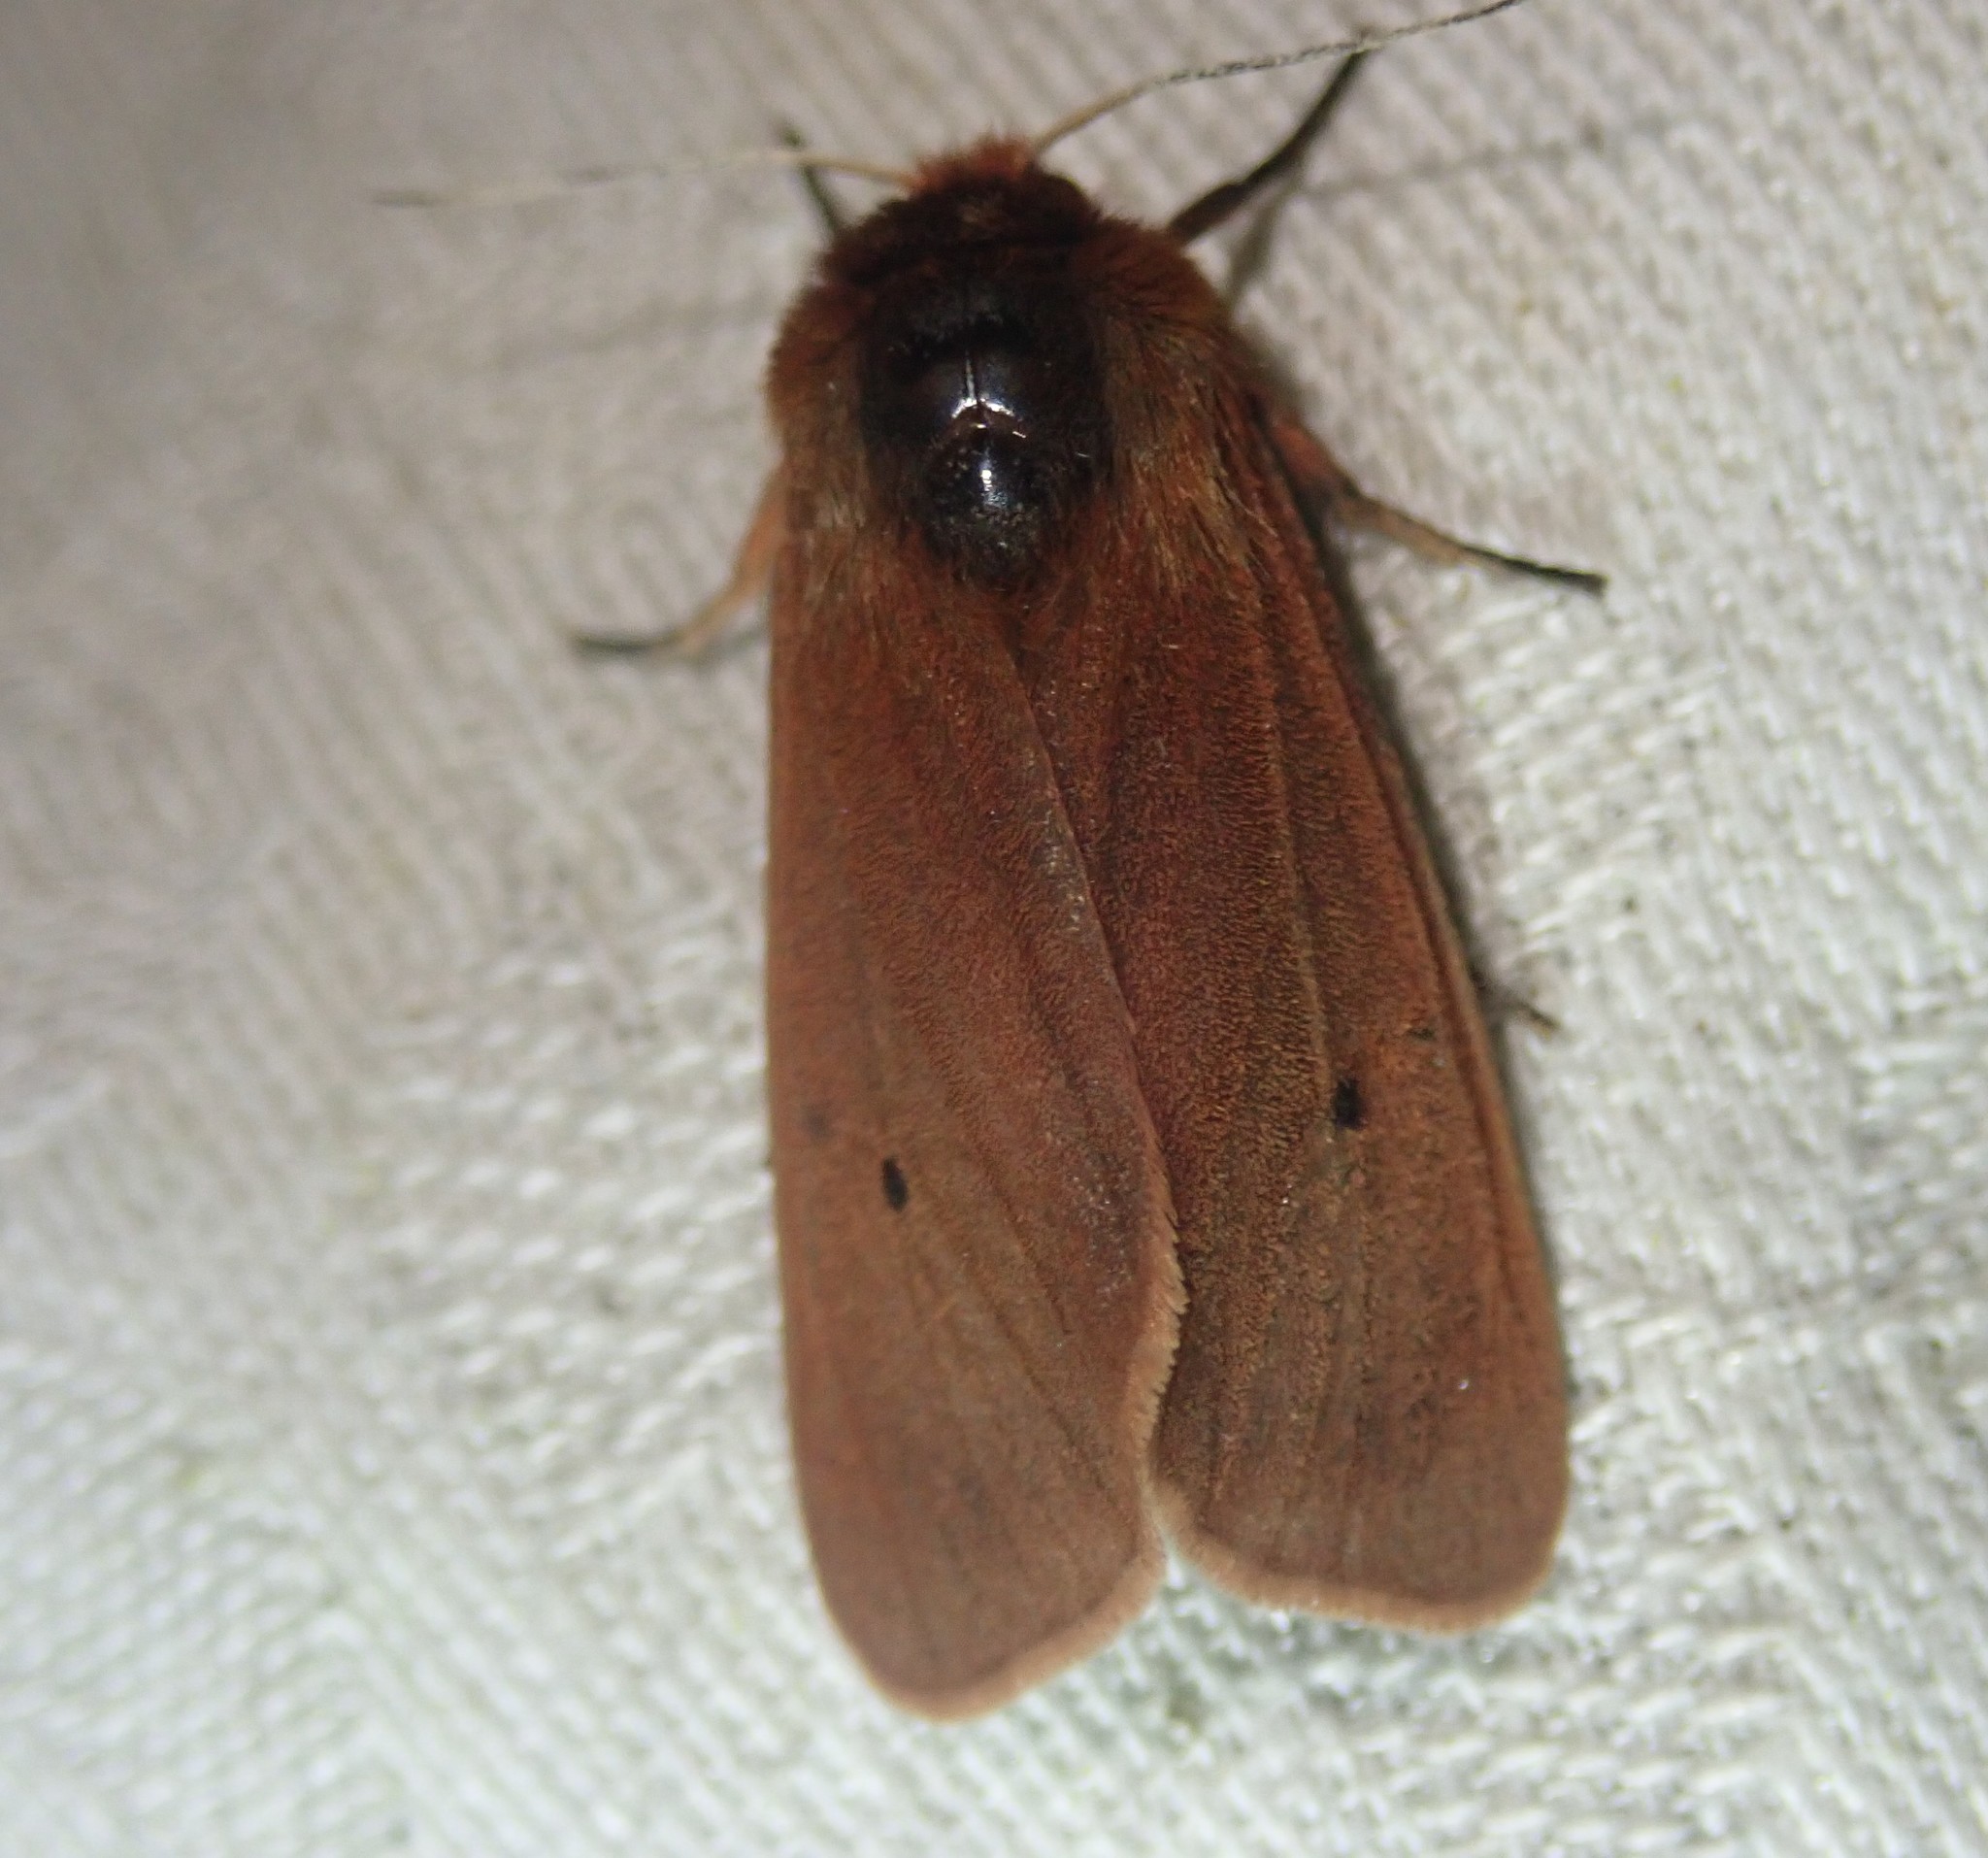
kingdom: Animalia
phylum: Arthropoda
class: Insecta
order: Lepidoptera
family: Erebidae
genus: Phragmatobia
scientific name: Phragmatobia fuliginosa
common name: Ruby tiger
